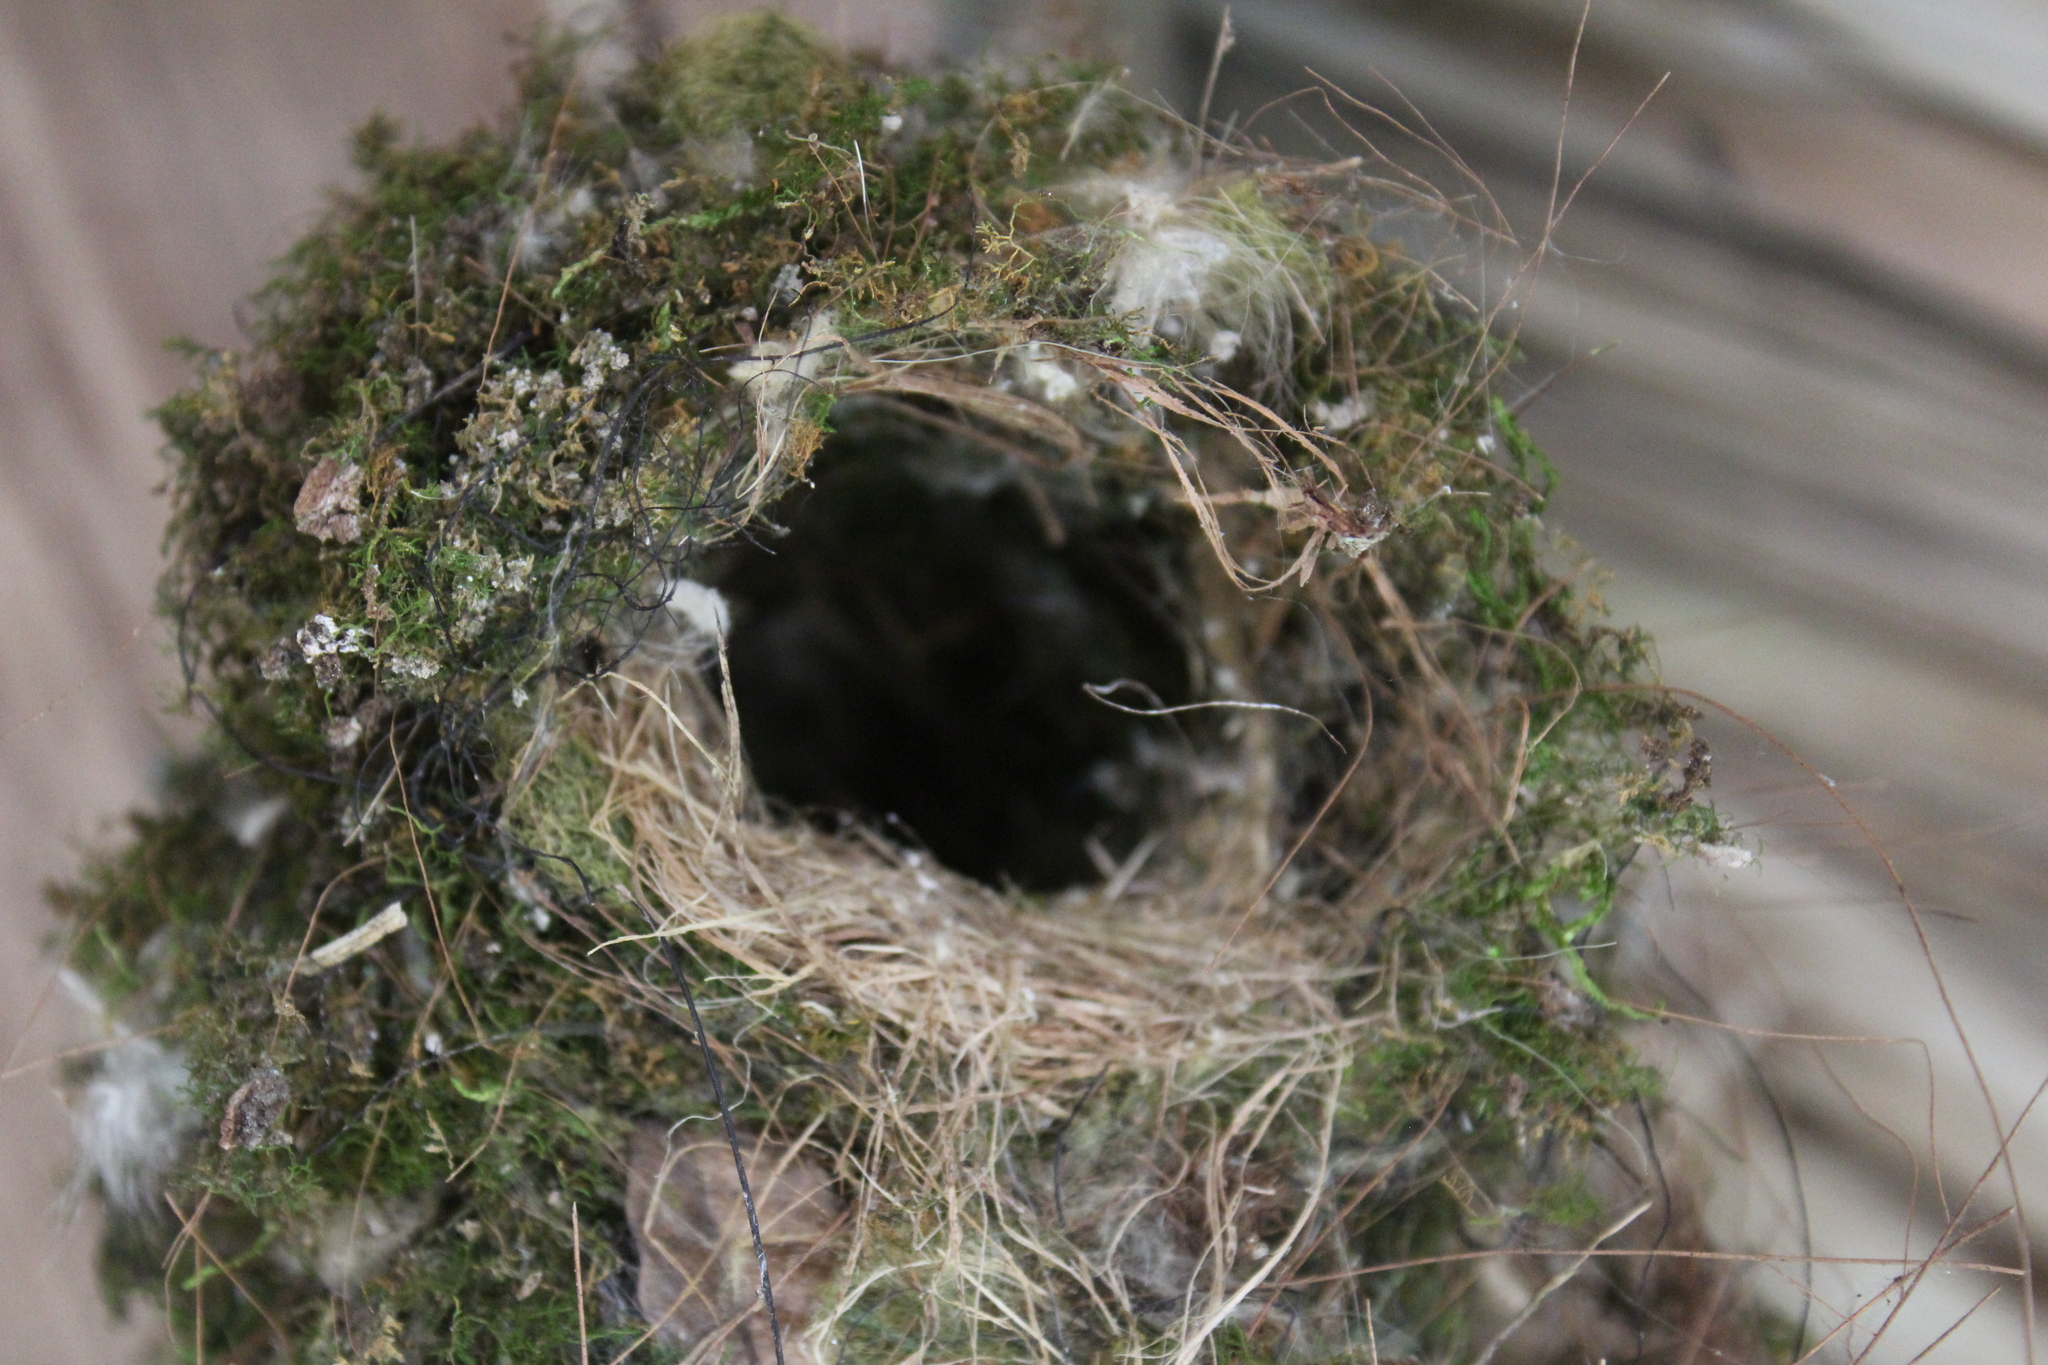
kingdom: Animalia
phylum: Chordata
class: Aves
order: Passeriformes
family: Tyrannidae
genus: Leptopogon
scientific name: Leptopogon amaurocephalus
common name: Sepia-capped flycatcher
